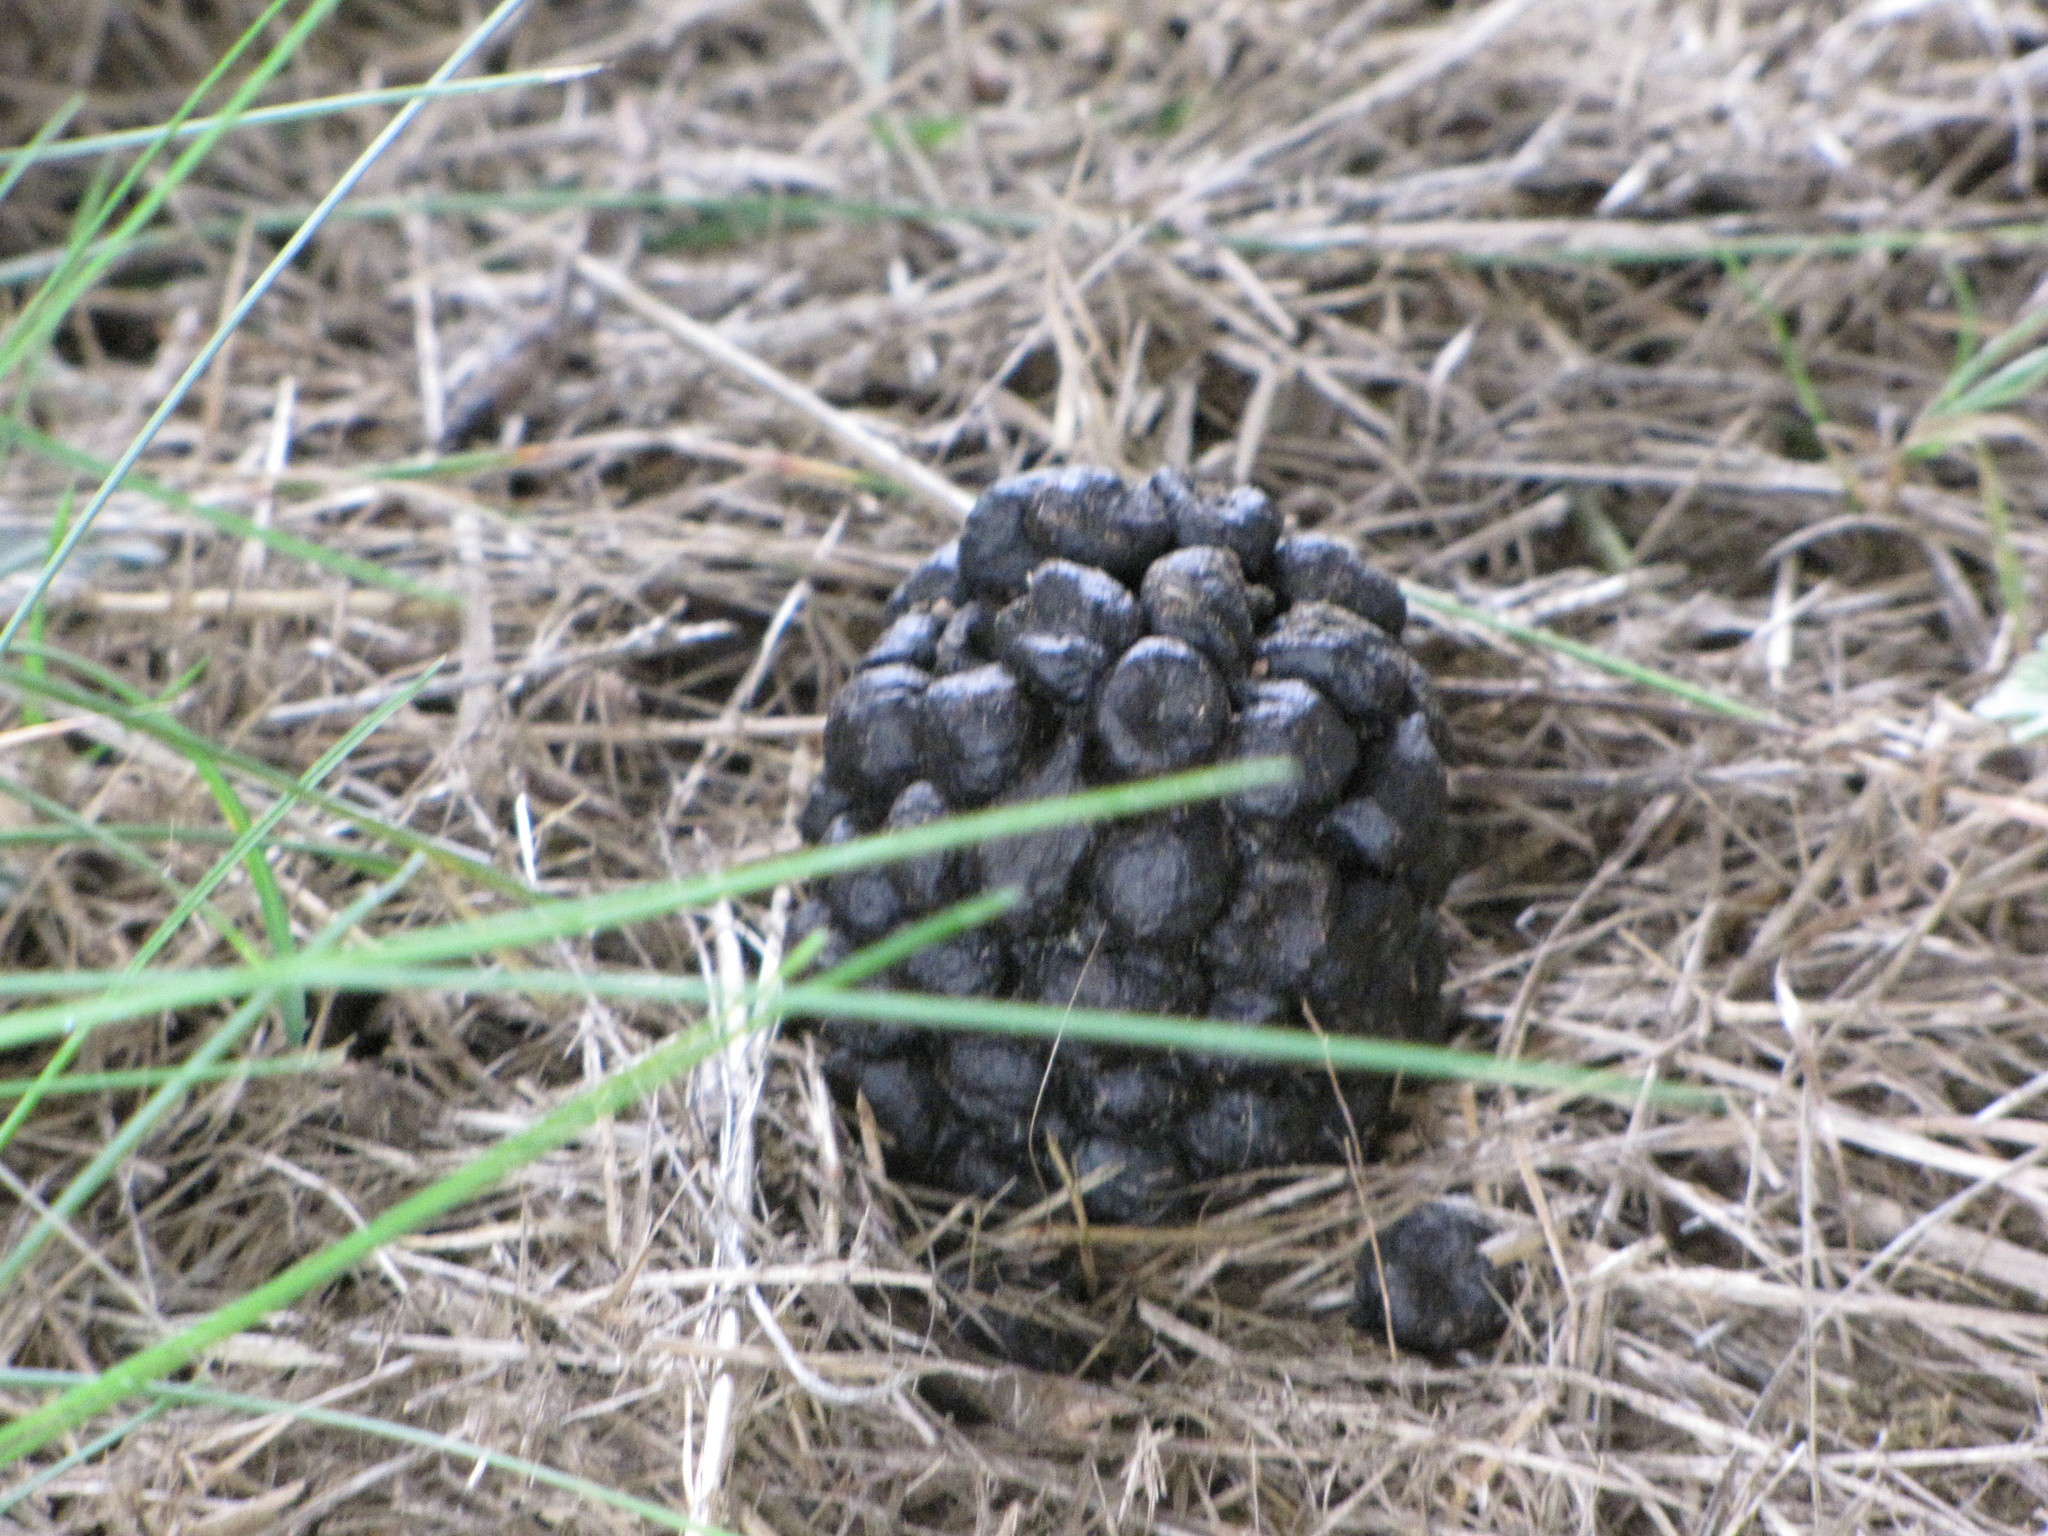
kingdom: Animalia
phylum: Chordata
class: Mammalia
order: Artiodactyla
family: Cervidae
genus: Odocoileus
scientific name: Odocoileus hemionus
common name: Mule deer
